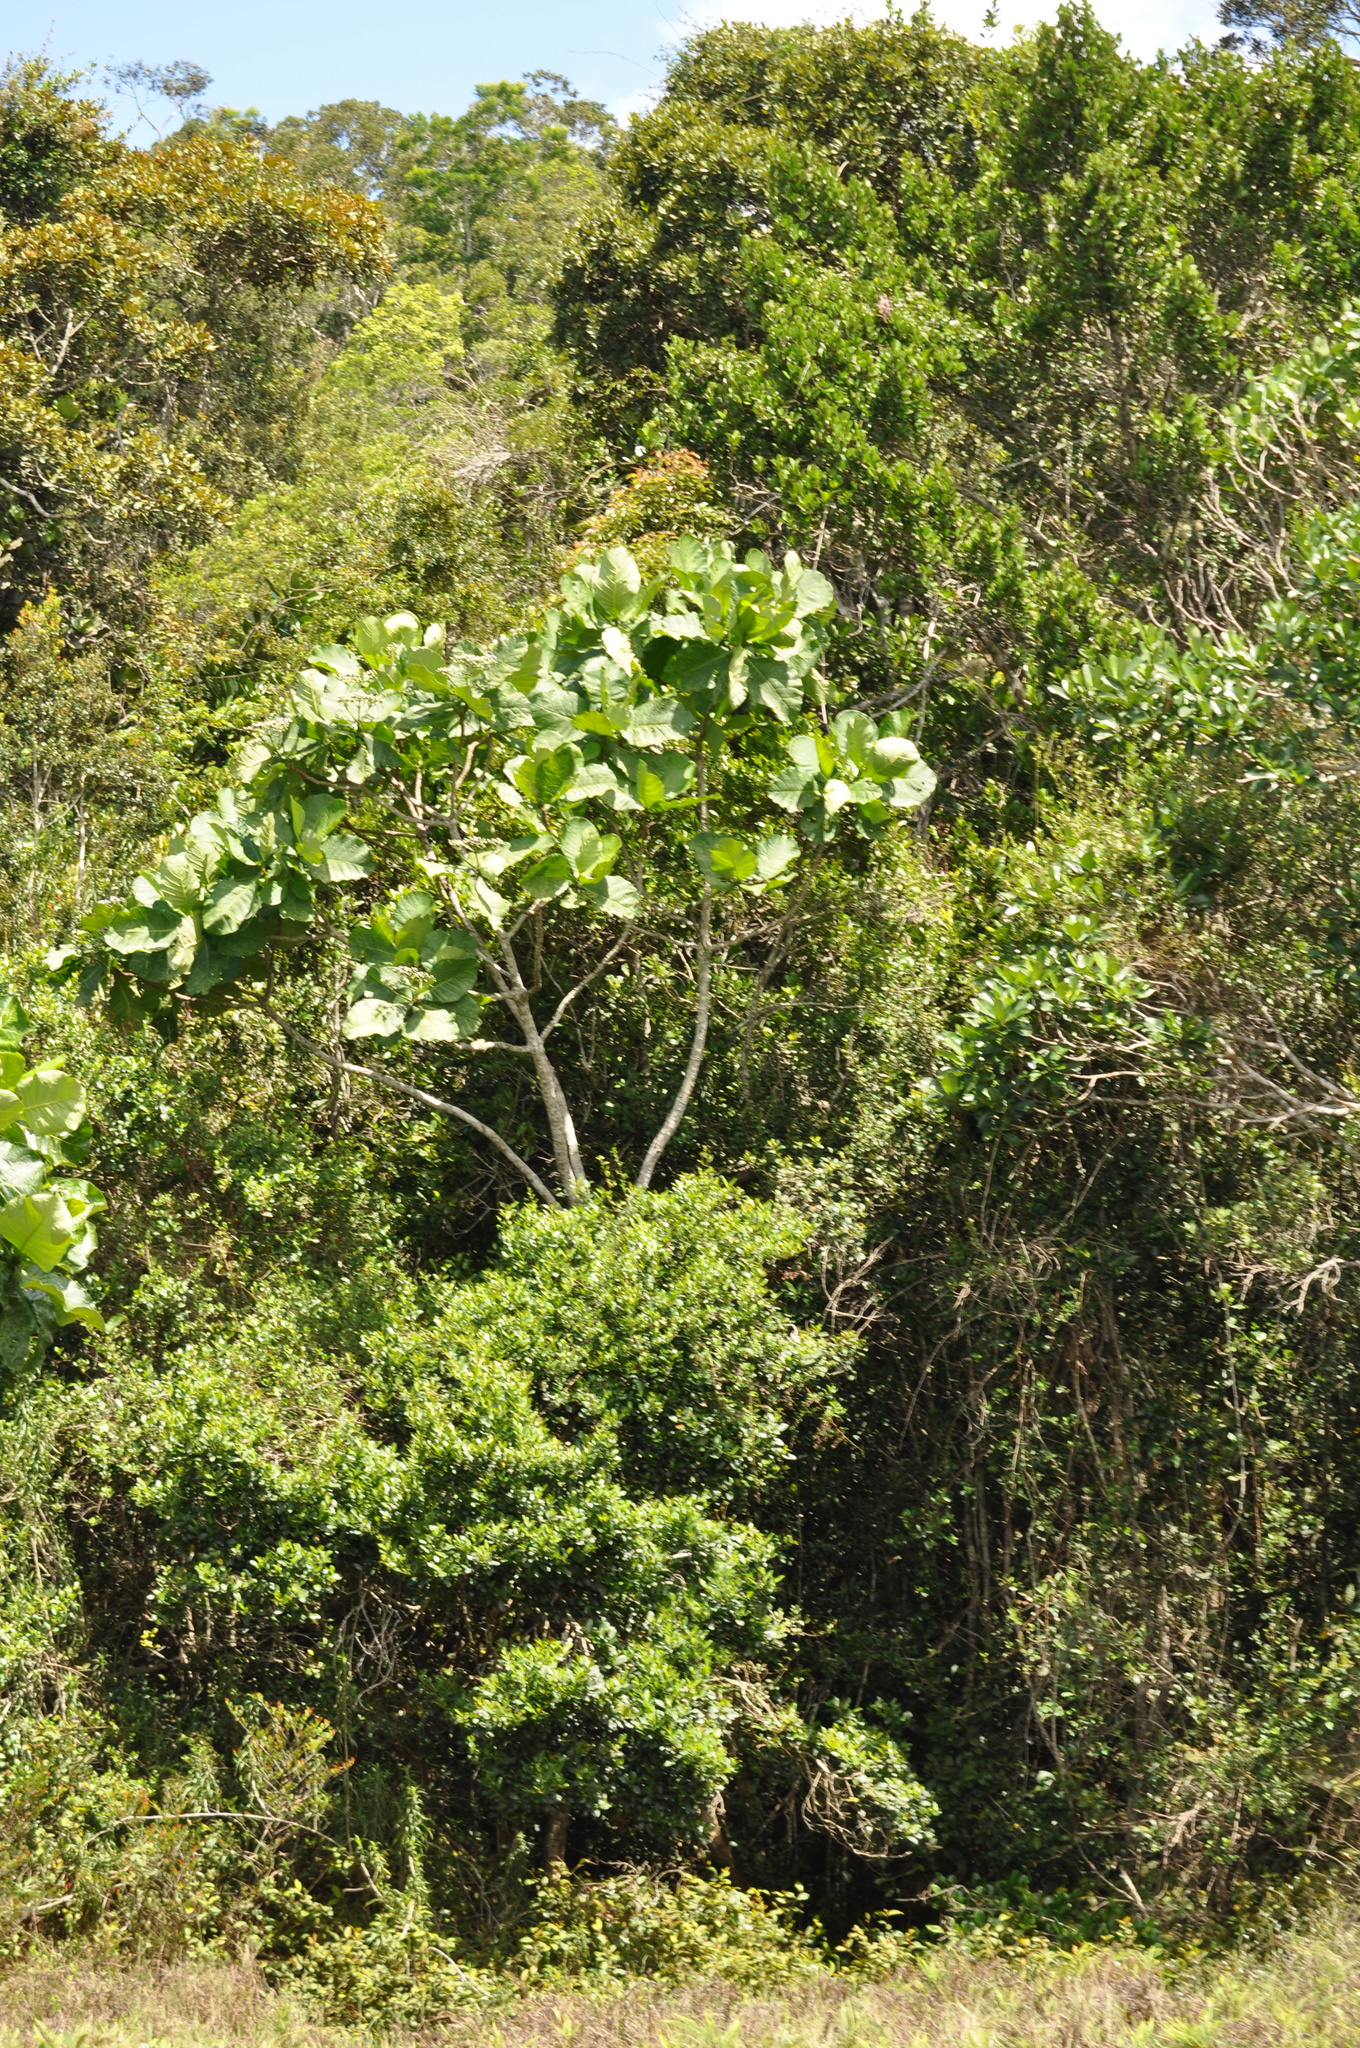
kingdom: Plantae
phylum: Tracheophyta
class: Magnoliopsida
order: Gentianales
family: Gentianaceae
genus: Anthocleista
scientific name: Anthocleista madagascariensis
